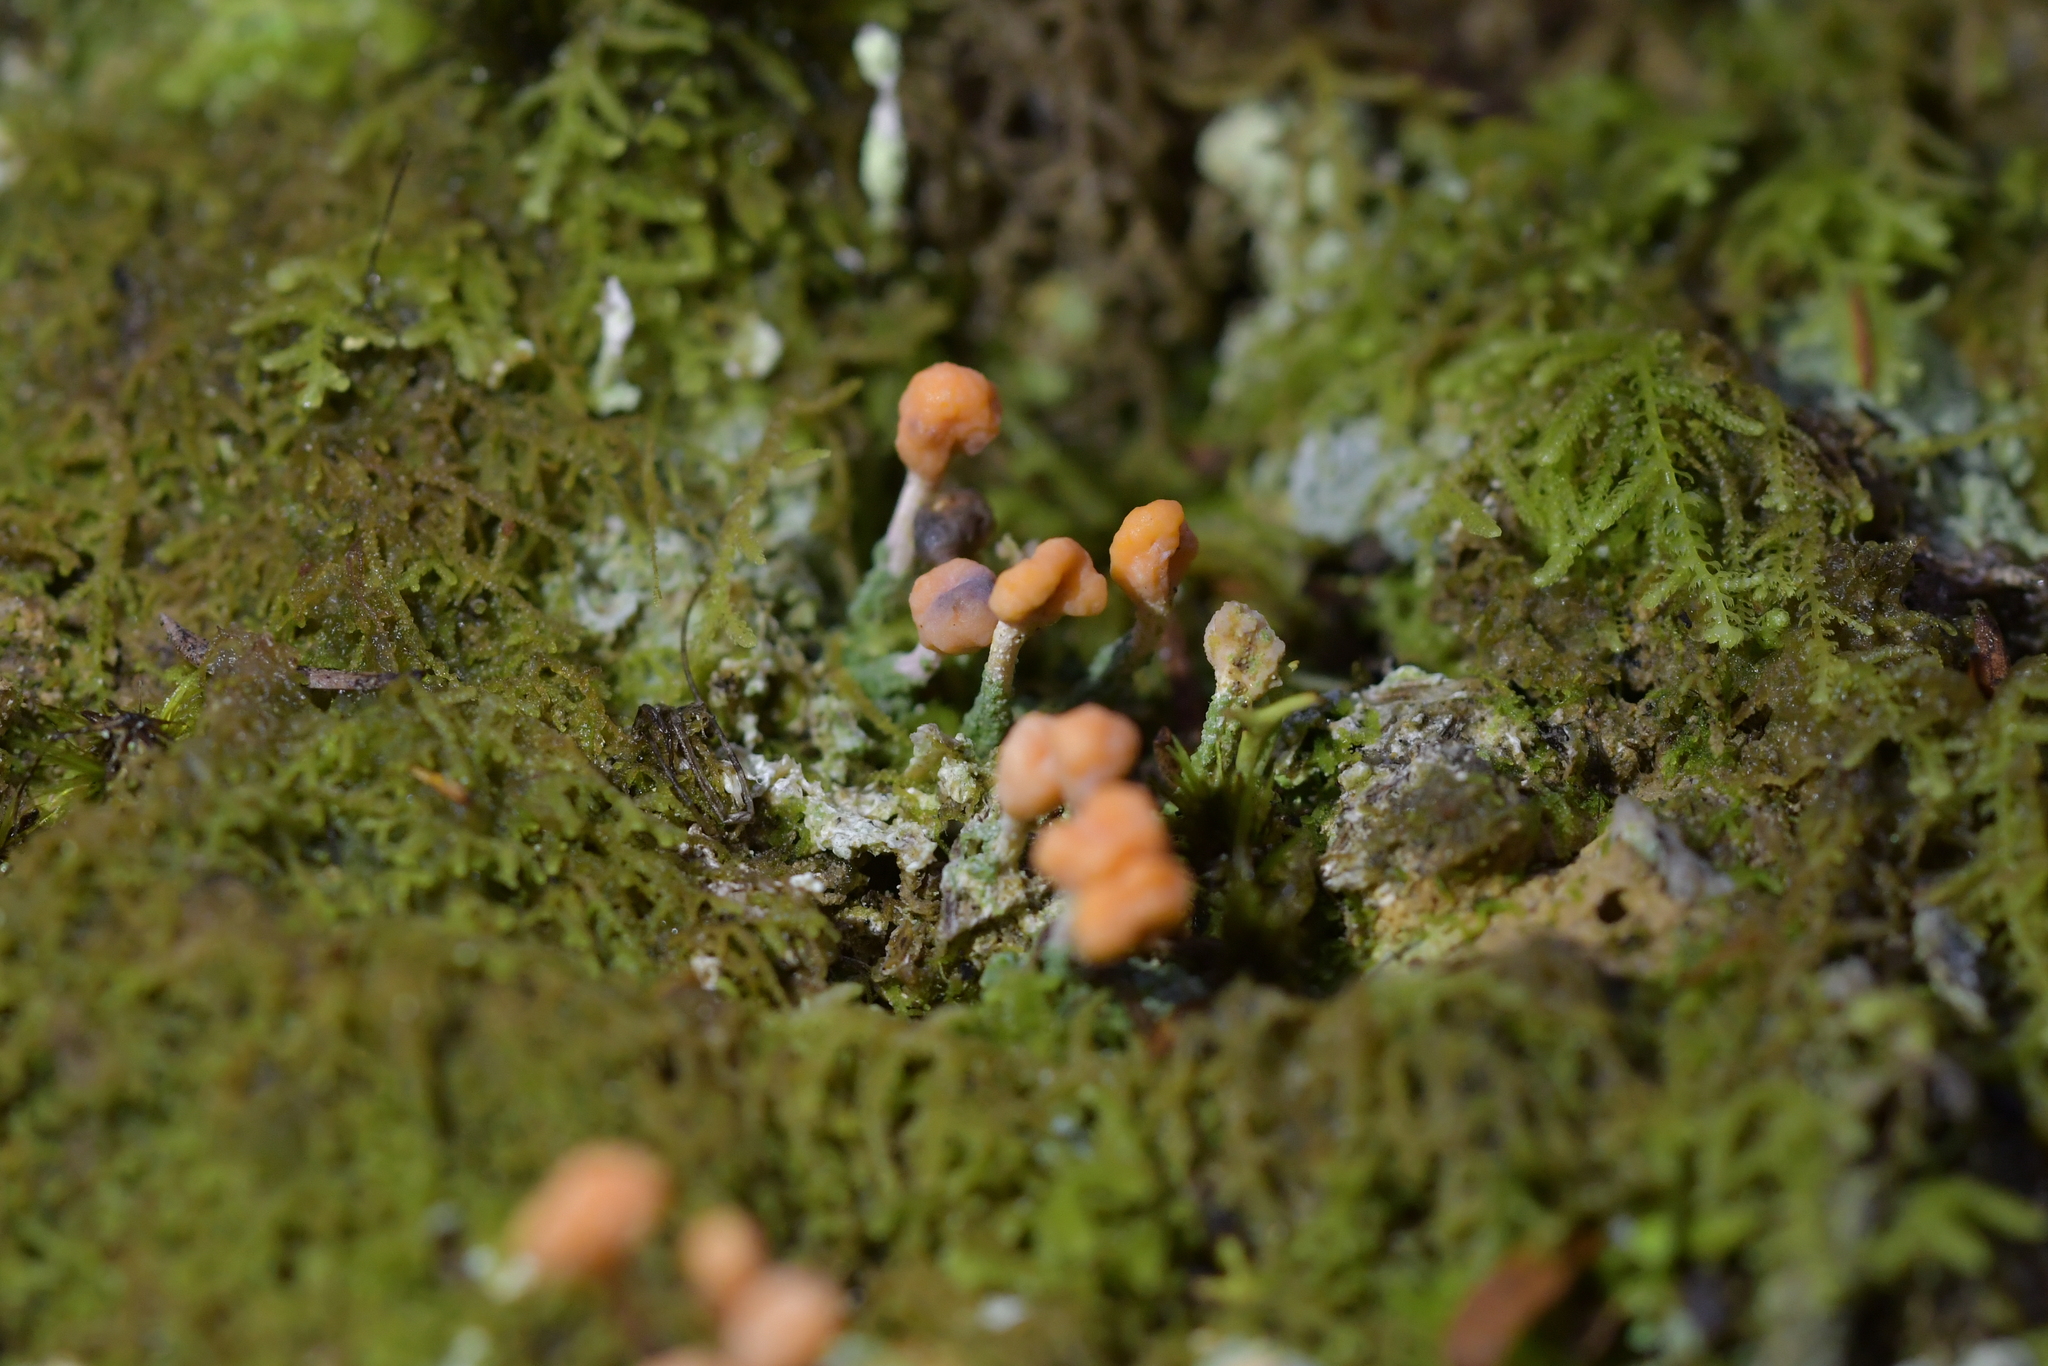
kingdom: Fungi
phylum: Ascomycota
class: Lecanoromycetes
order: Pertusariales
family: Icmadophilaceae
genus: Dibaeis
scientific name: Dibaeis arcuata
